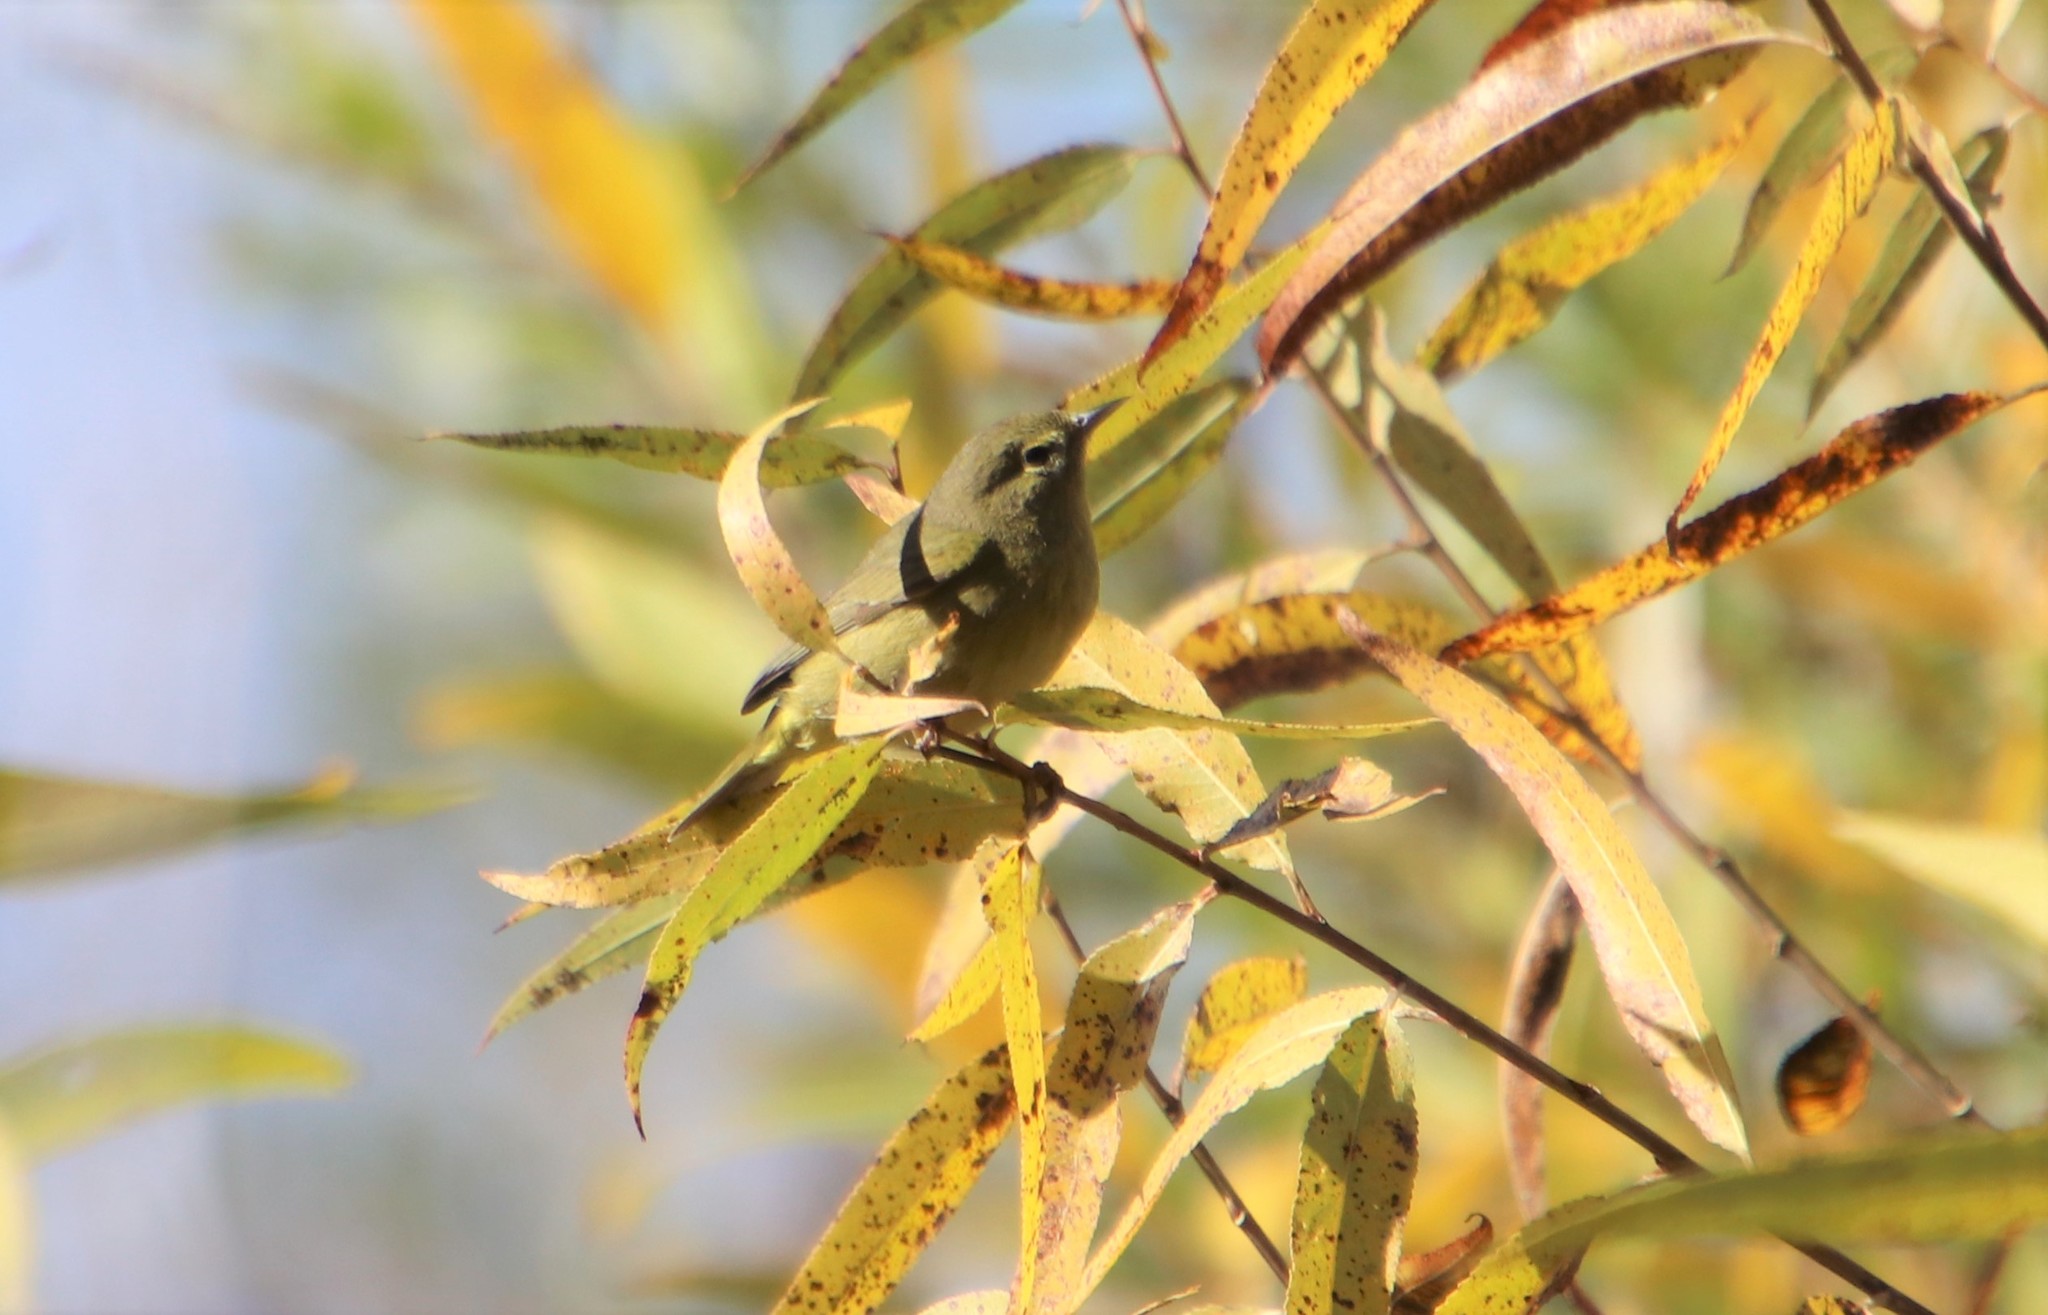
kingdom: Animalia
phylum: Chordata
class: Aves
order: Passeriformes
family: Parulidae
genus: Leiothlypis
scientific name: Leiothlypis celata
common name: Orange-crowned warbler
